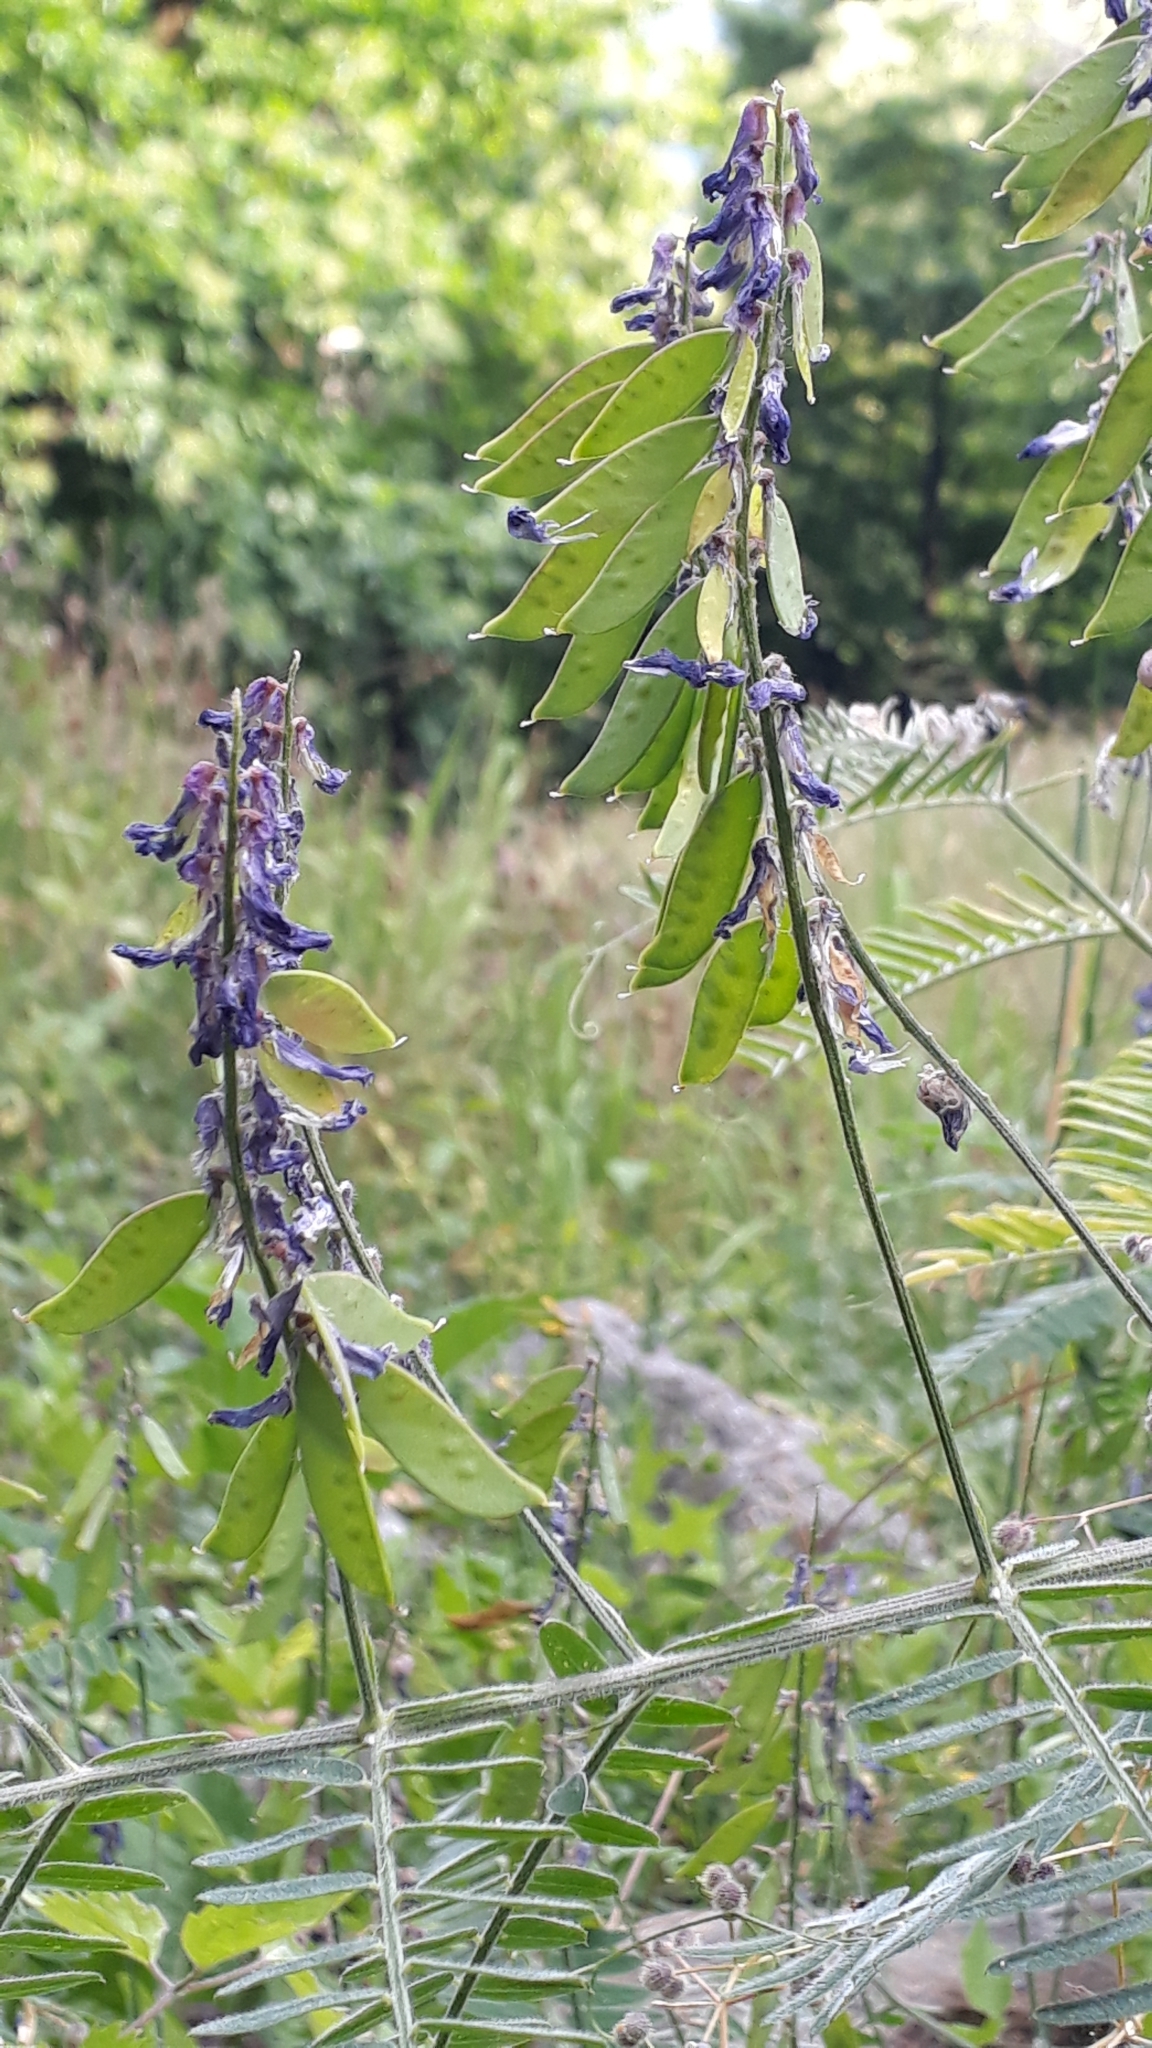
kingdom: Plantae
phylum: Tracheophyta
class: Magnoliopsida
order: Fabales
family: Fabaceae
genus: Vicia
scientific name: Vicia incana
